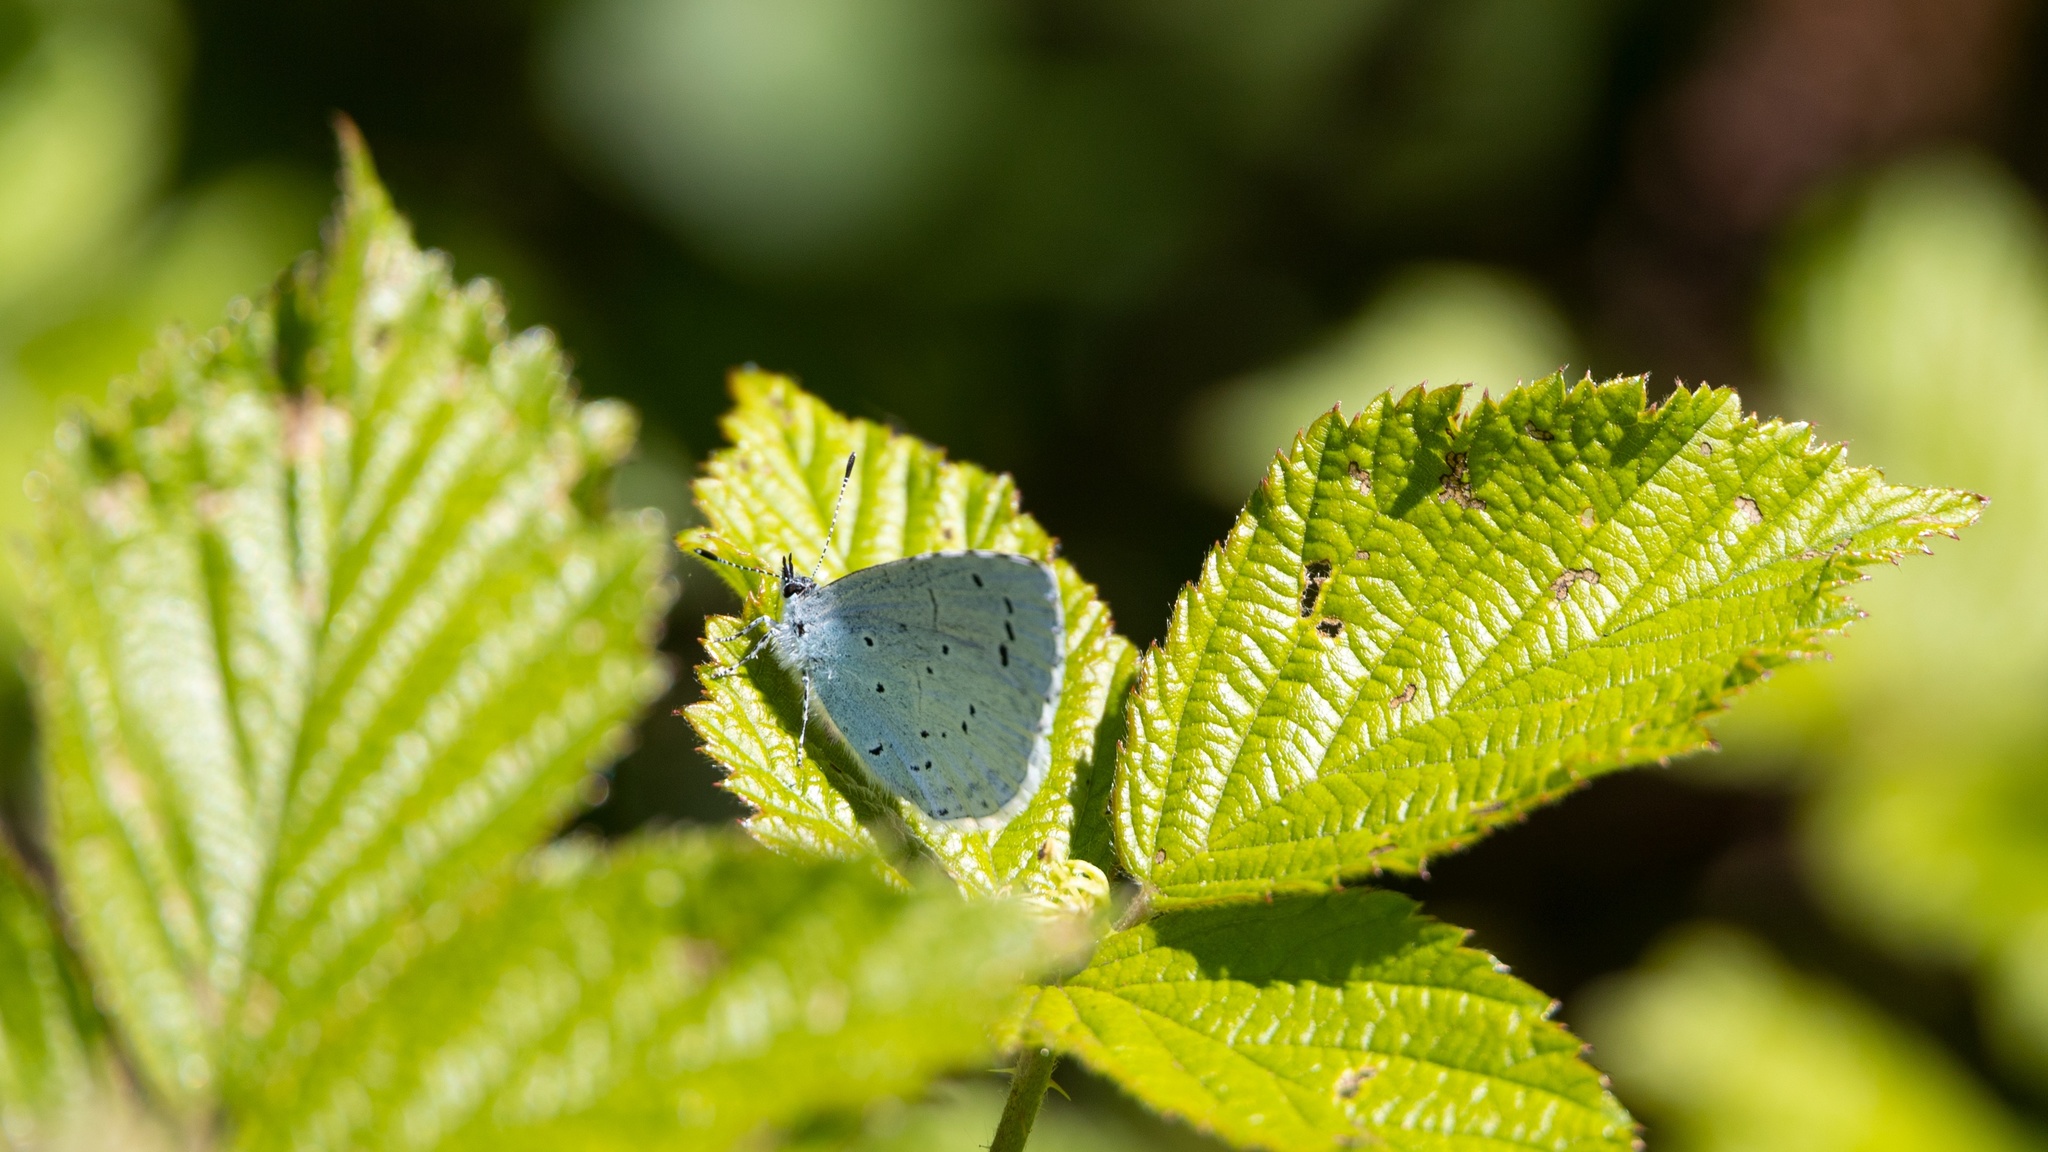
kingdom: Animalia
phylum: Arthropoda
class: Insecta
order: Lepidoptera
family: Lycaenidae
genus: Celastrina
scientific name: Celastrina argiolus
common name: Holly blue
